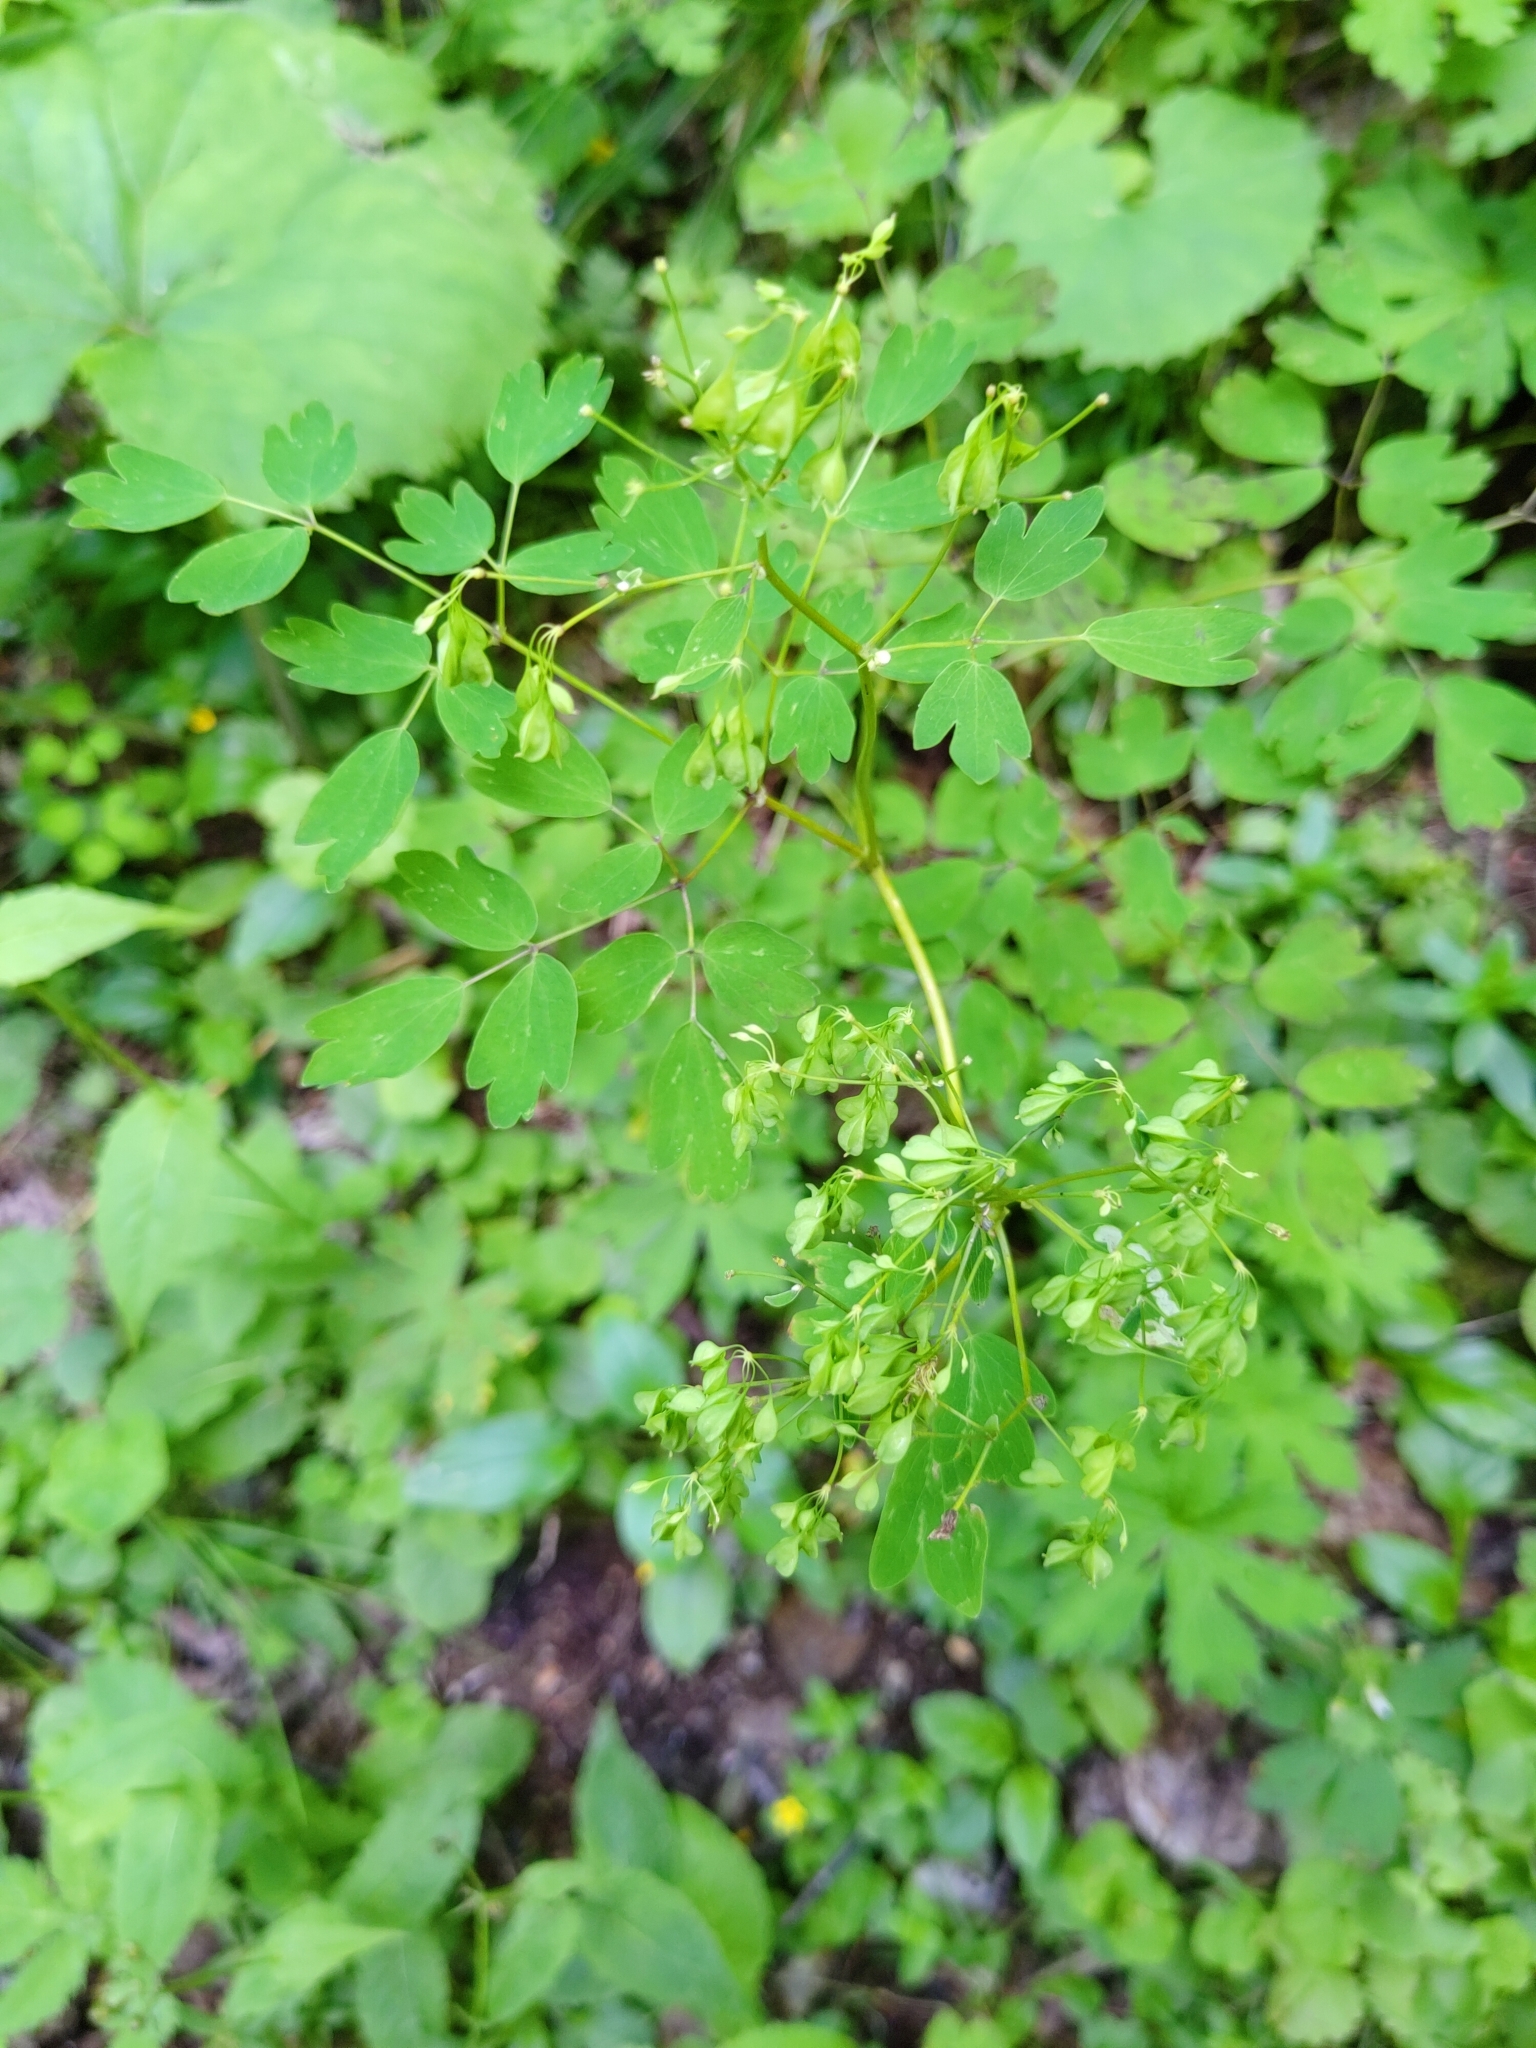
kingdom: Plantae
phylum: Tracheophyta
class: Magnoliopsida
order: Ranunculales
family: Ranunculaceae
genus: Thalictrum
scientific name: Thalictrum aquilegiifolium
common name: French meadow-rue
